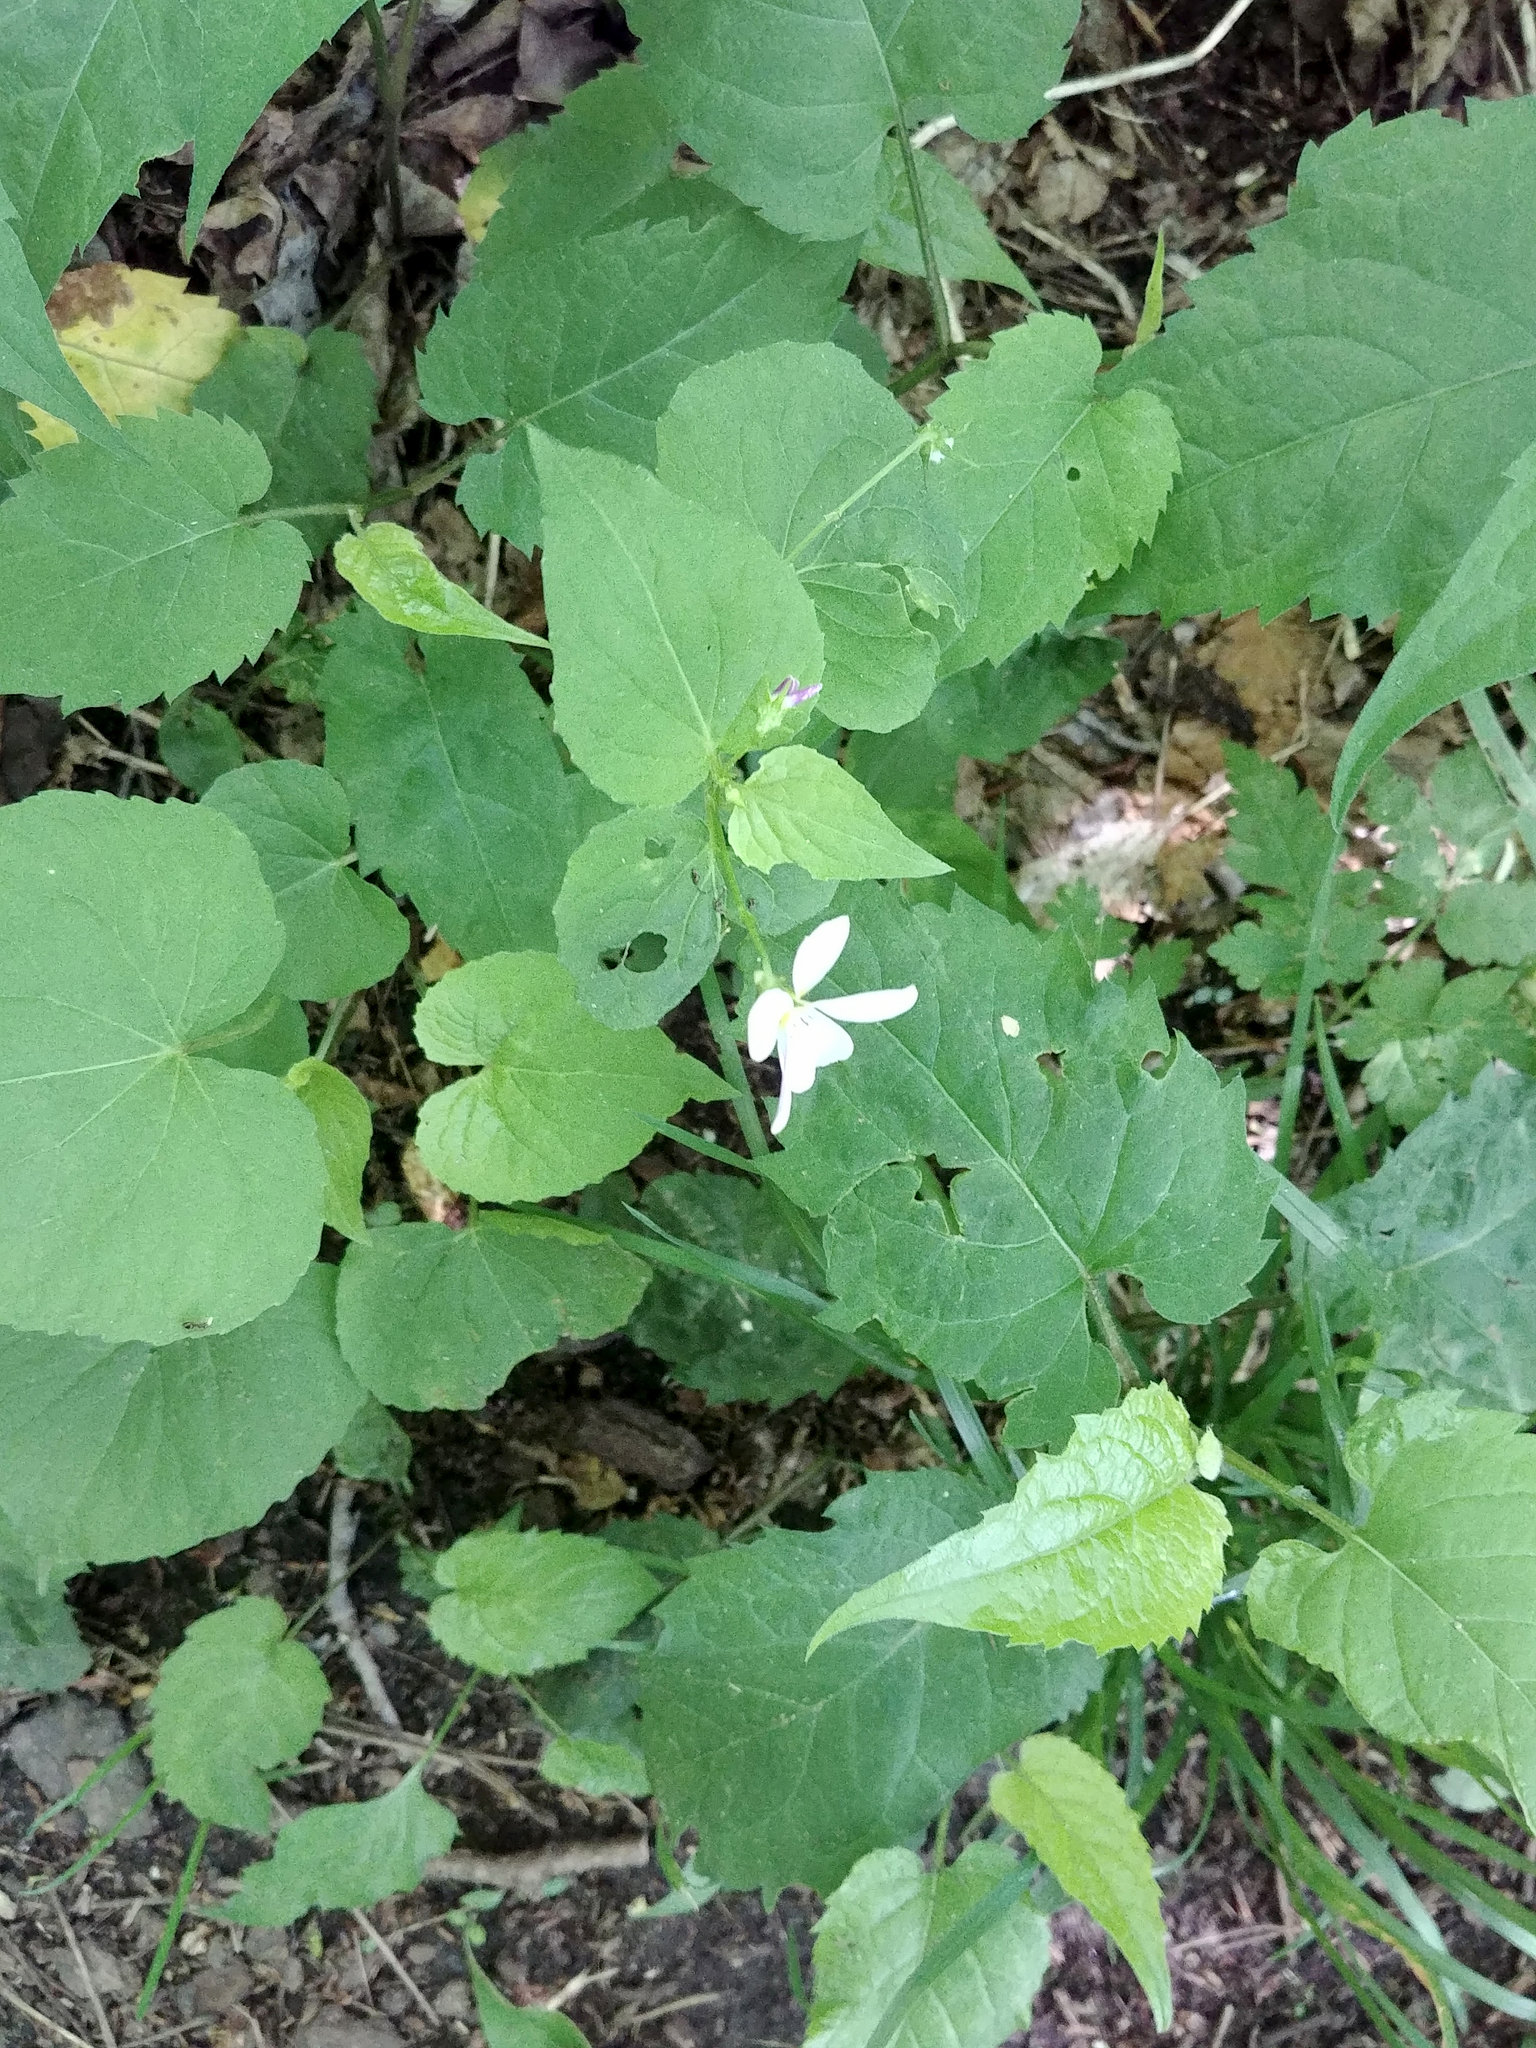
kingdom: Plantae
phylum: Tracheophyta
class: Magnoliopsida
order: Malpighiales
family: Violaceae
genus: Viola
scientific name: Viola canadensis
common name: Canada violet
